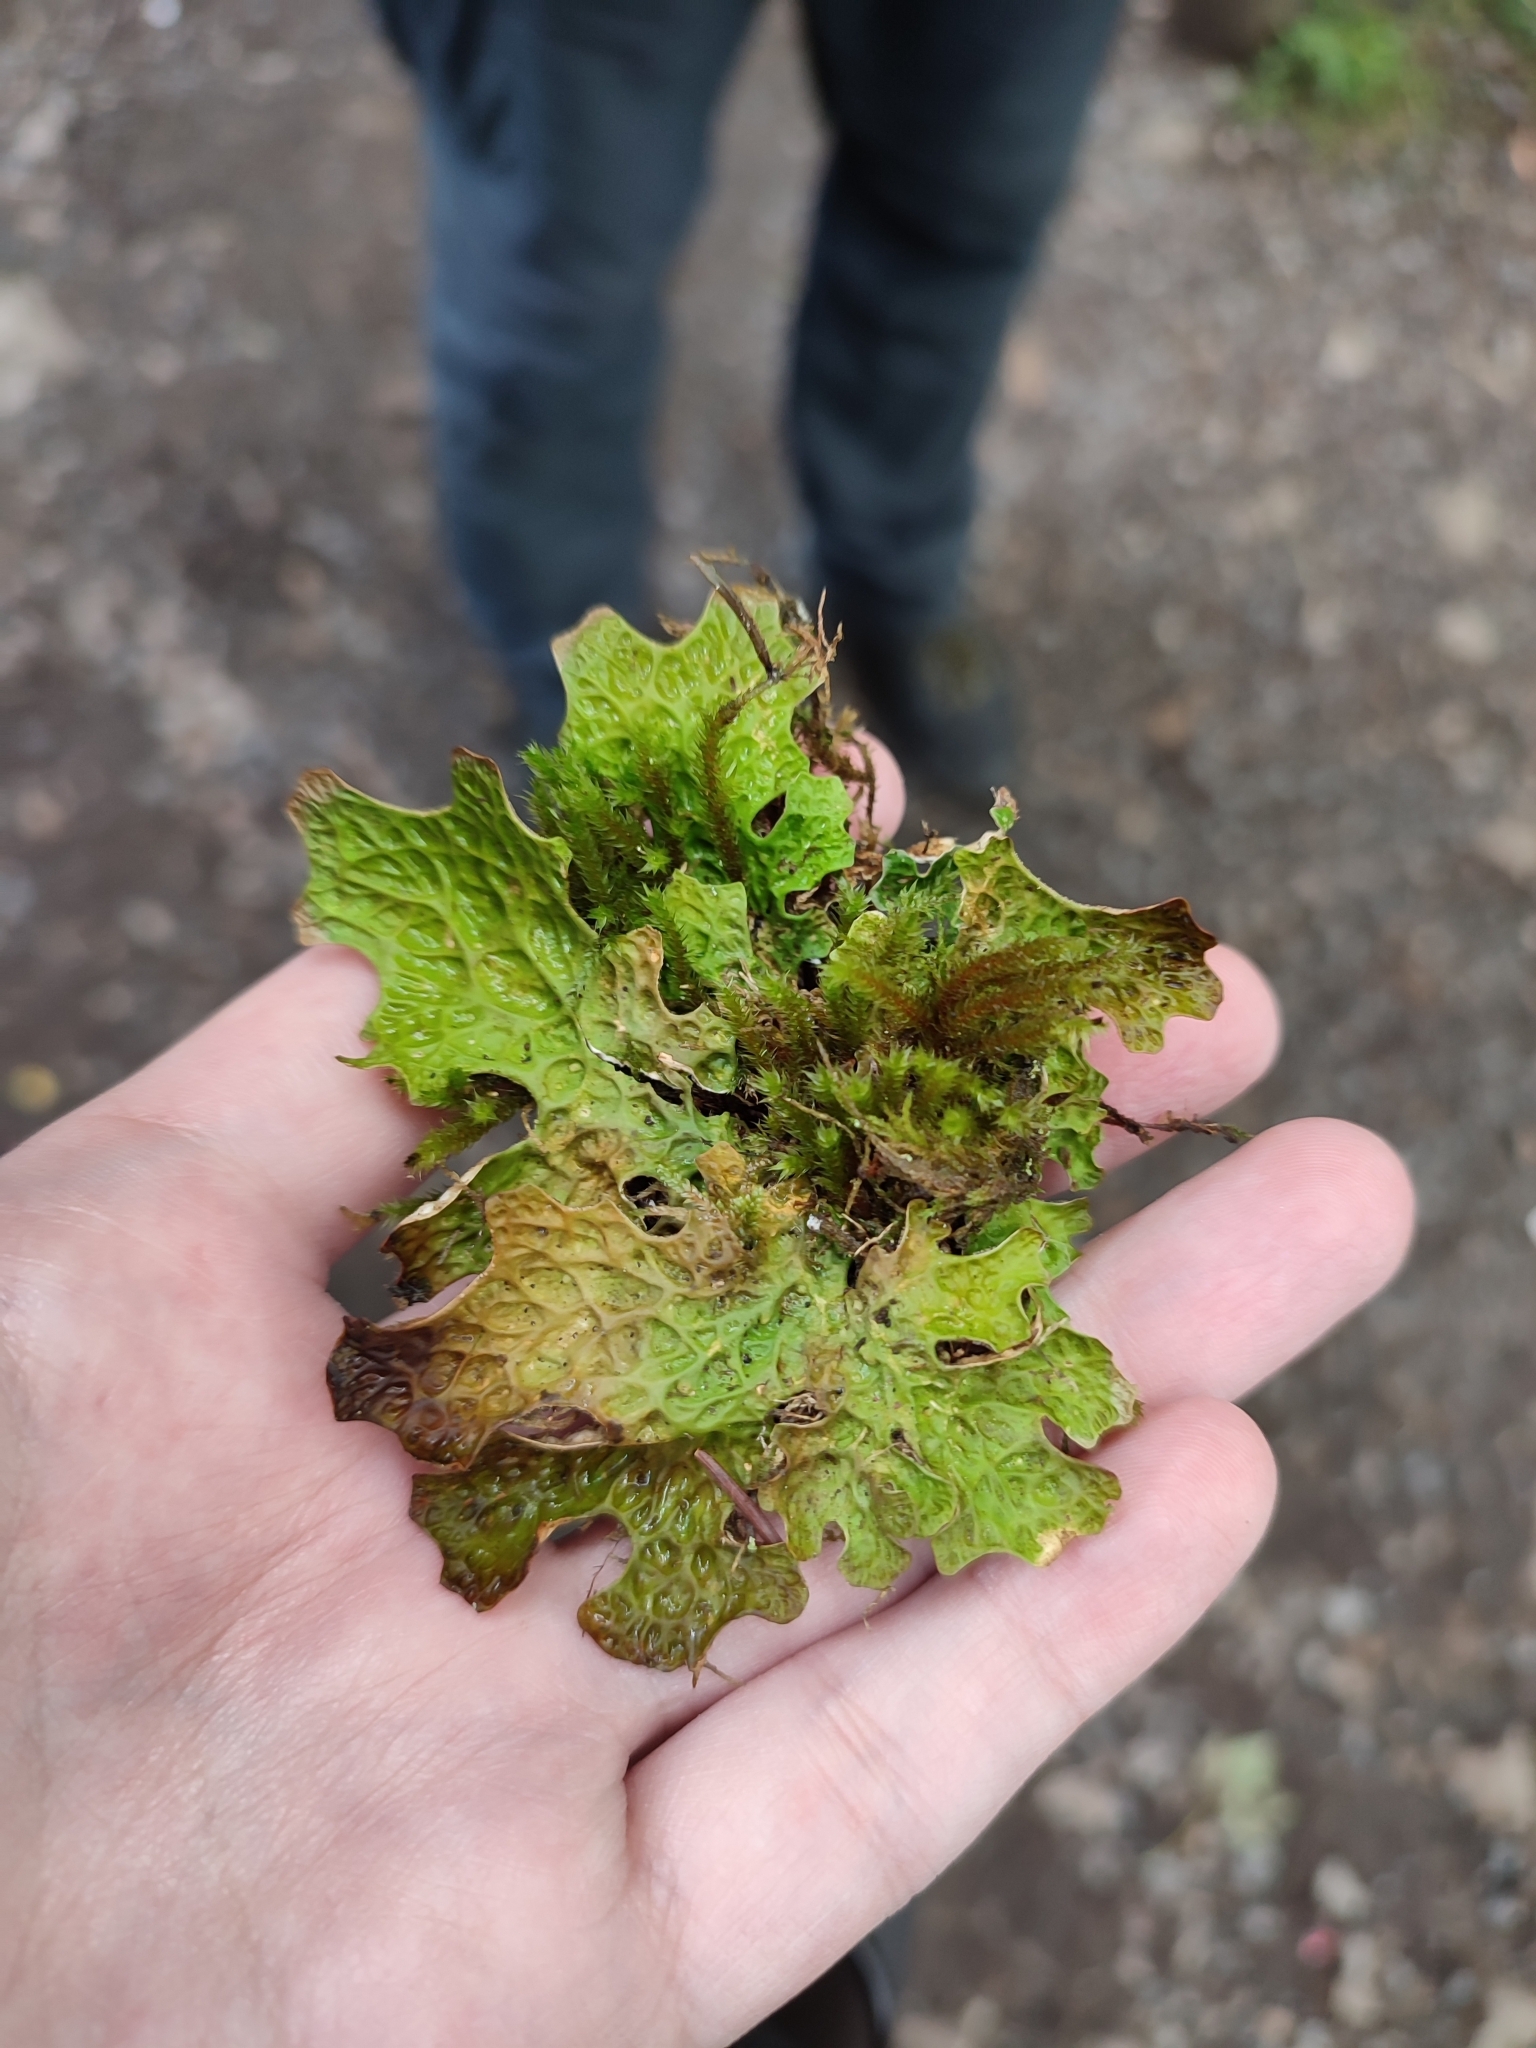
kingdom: Fungi
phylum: Ascomycota
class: Lecanoromycetes
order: Peltigerales
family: Lobariaceae
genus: Lobaria
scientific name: Lobaria pulmonaria
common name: Lungwort
